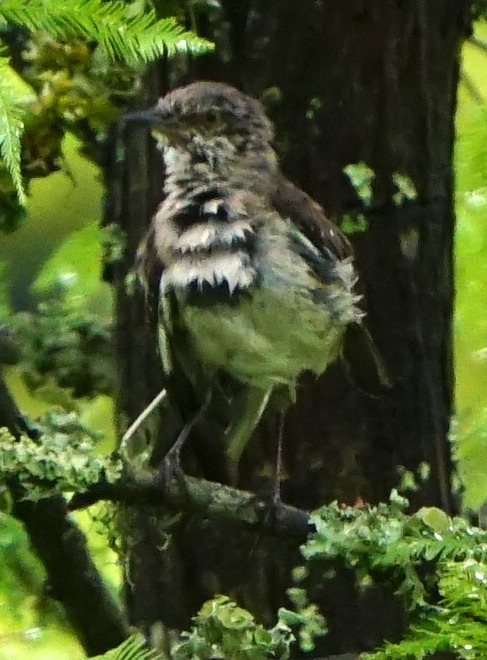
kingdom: Animalia
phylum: Chordata
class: Aves
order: Passeriformes
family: Mimidae
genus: Mimus
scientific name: Mimus polyglottos
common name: Northern mockingbird
